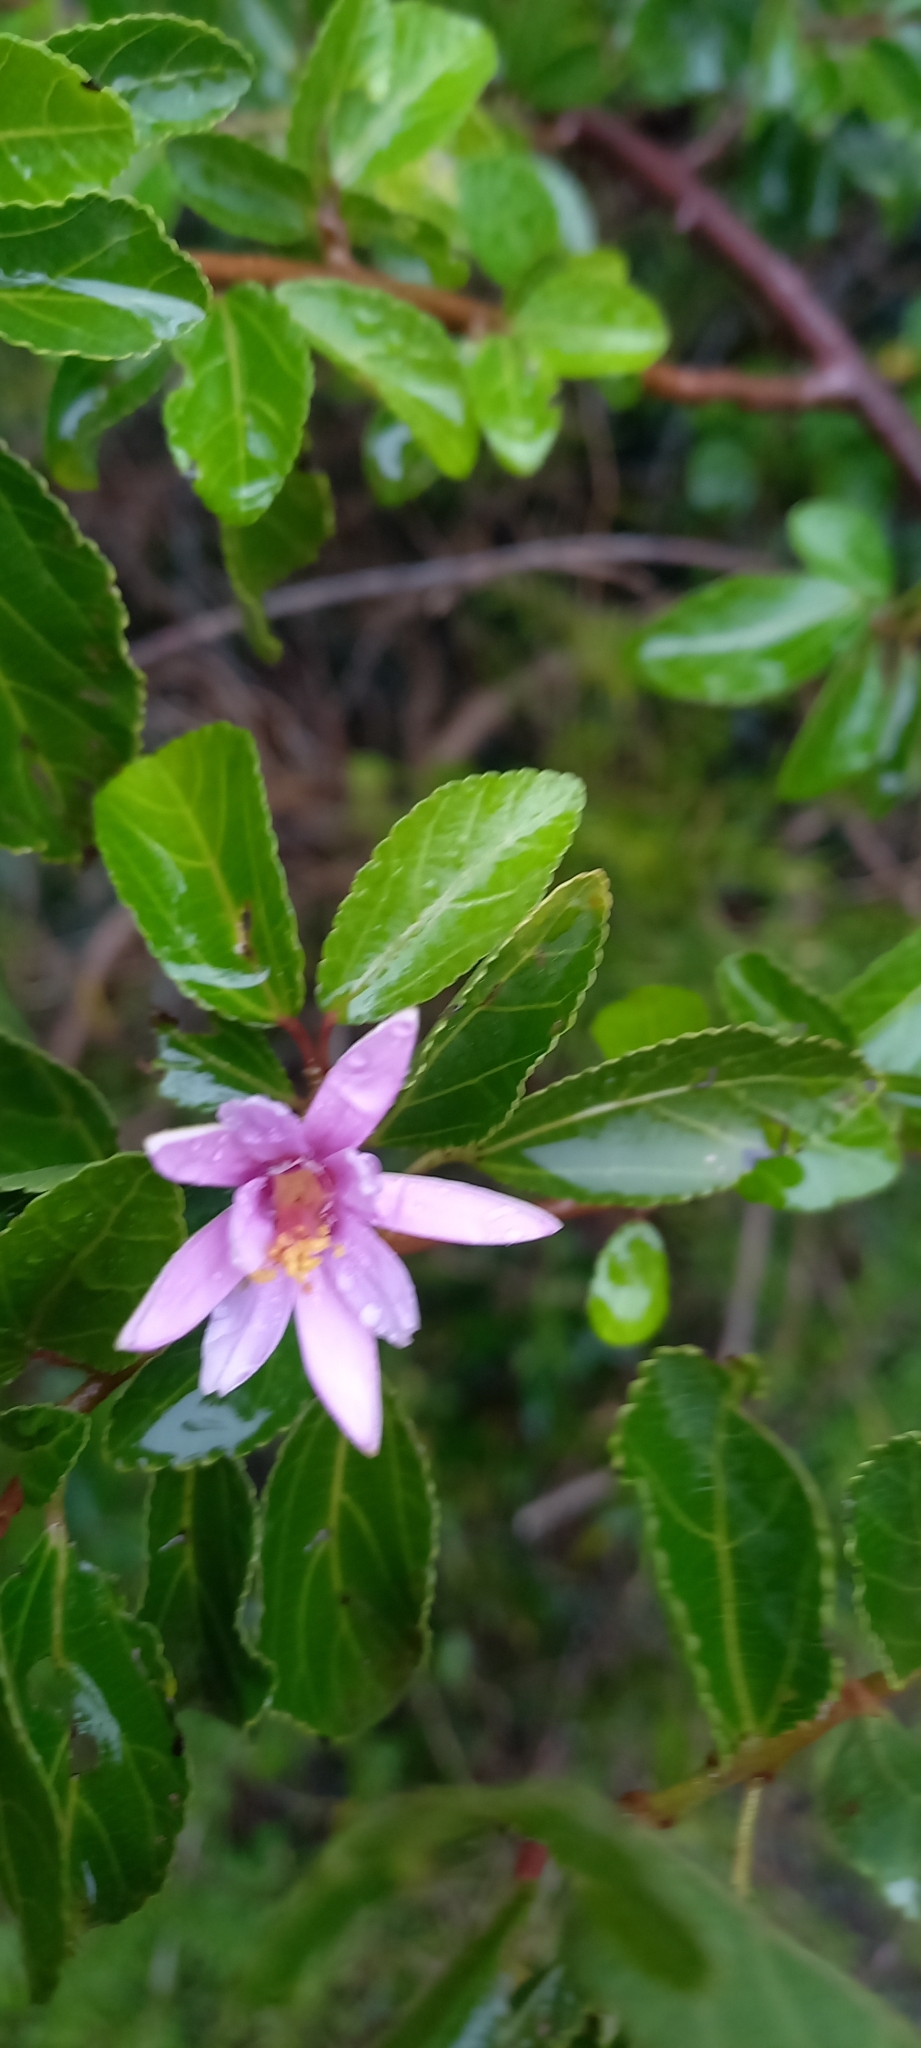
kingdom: Plantae
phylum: Tracheophyta
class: Magnoliopsida
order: Malvales
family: Malvaceae
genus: Grewia
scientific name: Grewia occidentalis
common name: Crossberry
